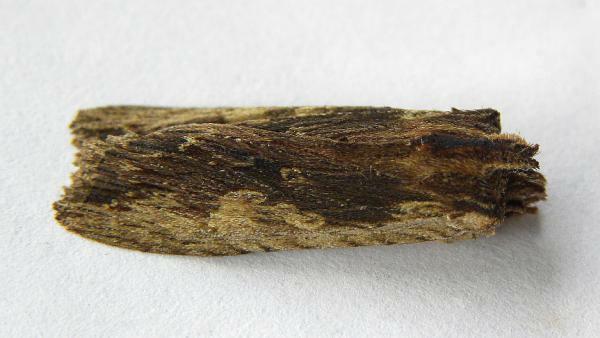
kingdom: Animalia
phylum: Arthropoda
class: Insecta
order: Lepidoptera
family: Noctuidae
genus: Lithophane
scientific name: Lithophane hemina
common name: Hemina pinion moth
